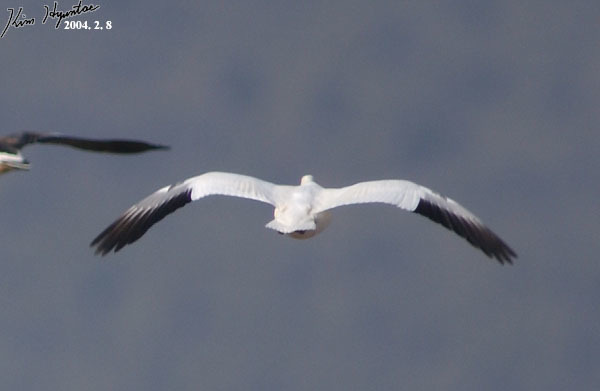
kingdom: Animalia
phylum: Chordata
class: Aves
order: Anseriformes
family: Anatidae
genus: Anser
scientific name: Anser caerulescens
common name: Snow goose
